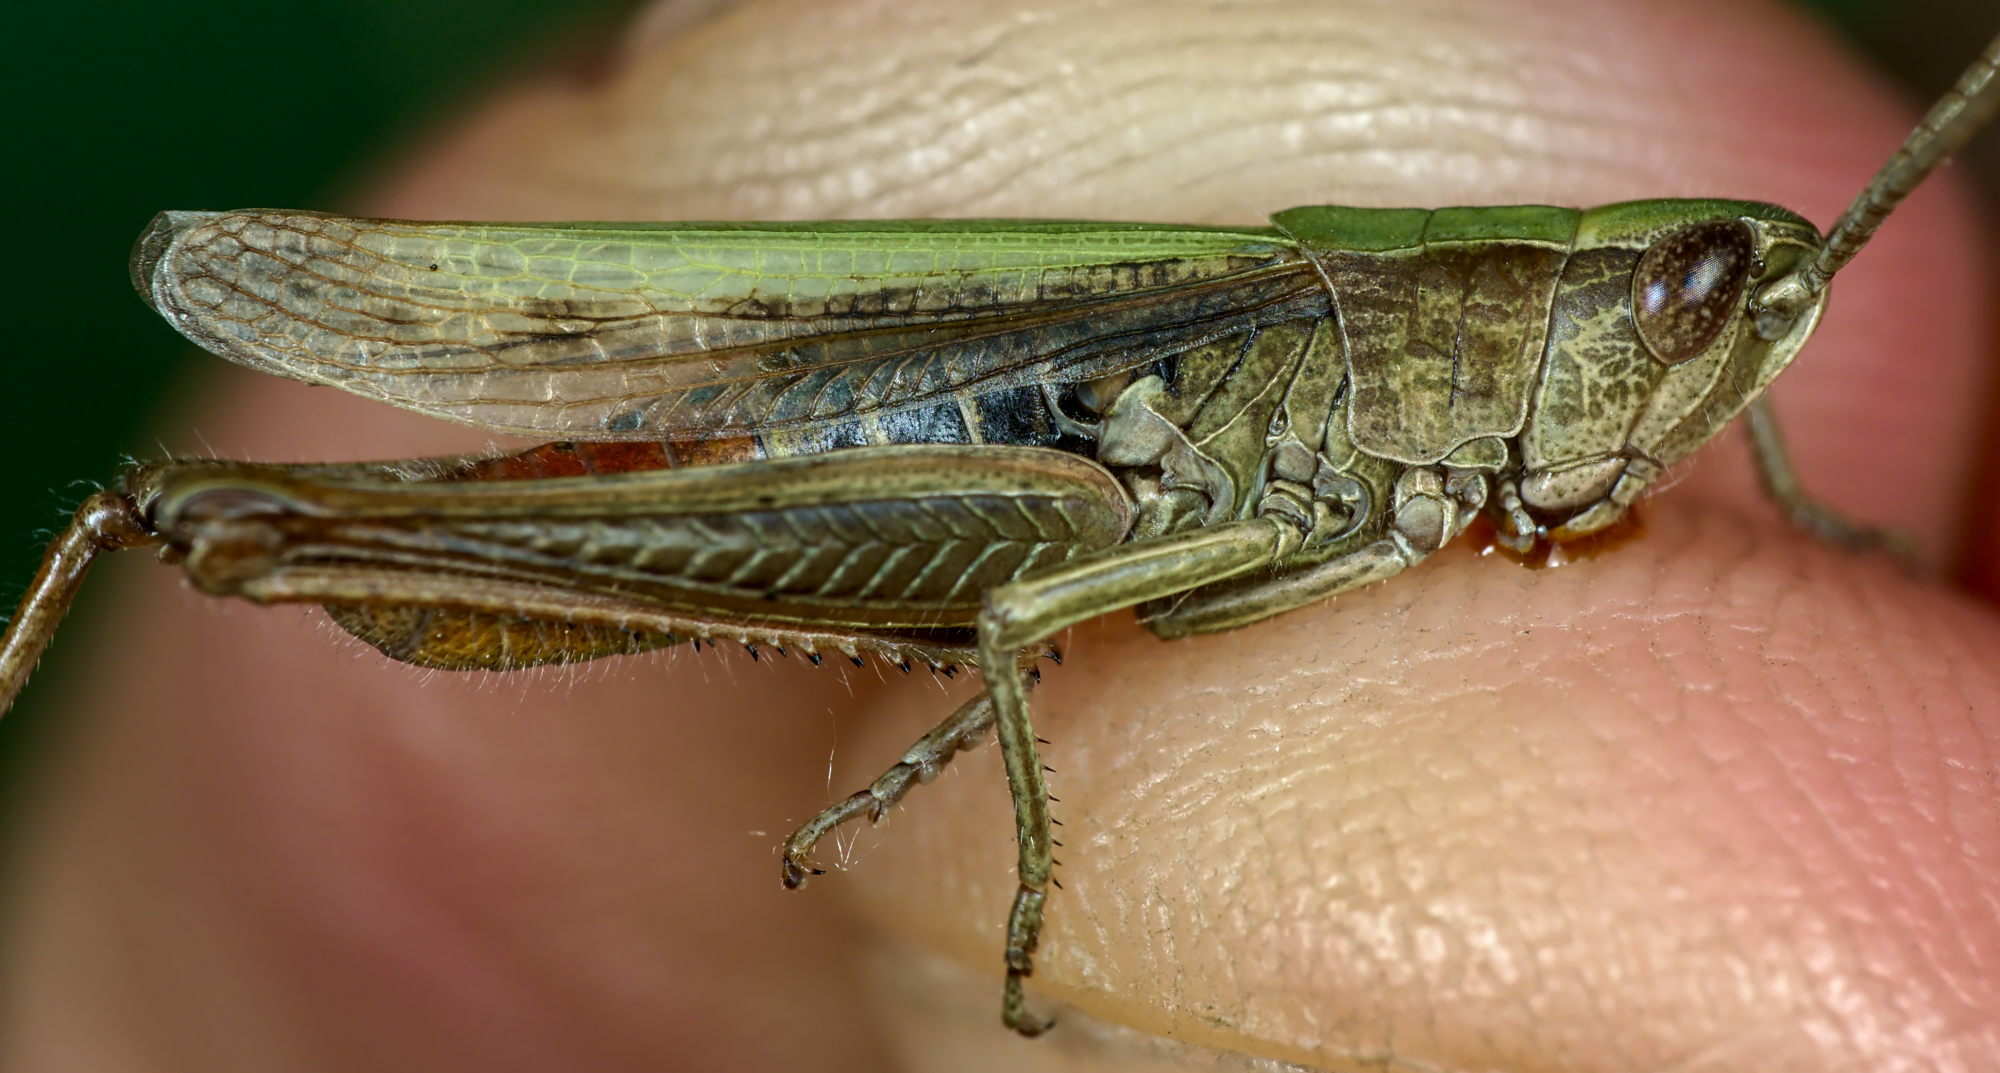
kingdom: Animalia
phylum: Arthropoda
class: Insecta
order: Orthoptera
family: Acrididae
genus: Chorthippus
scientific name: Chorthippus dorsatus
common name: Steppe grasshopper
